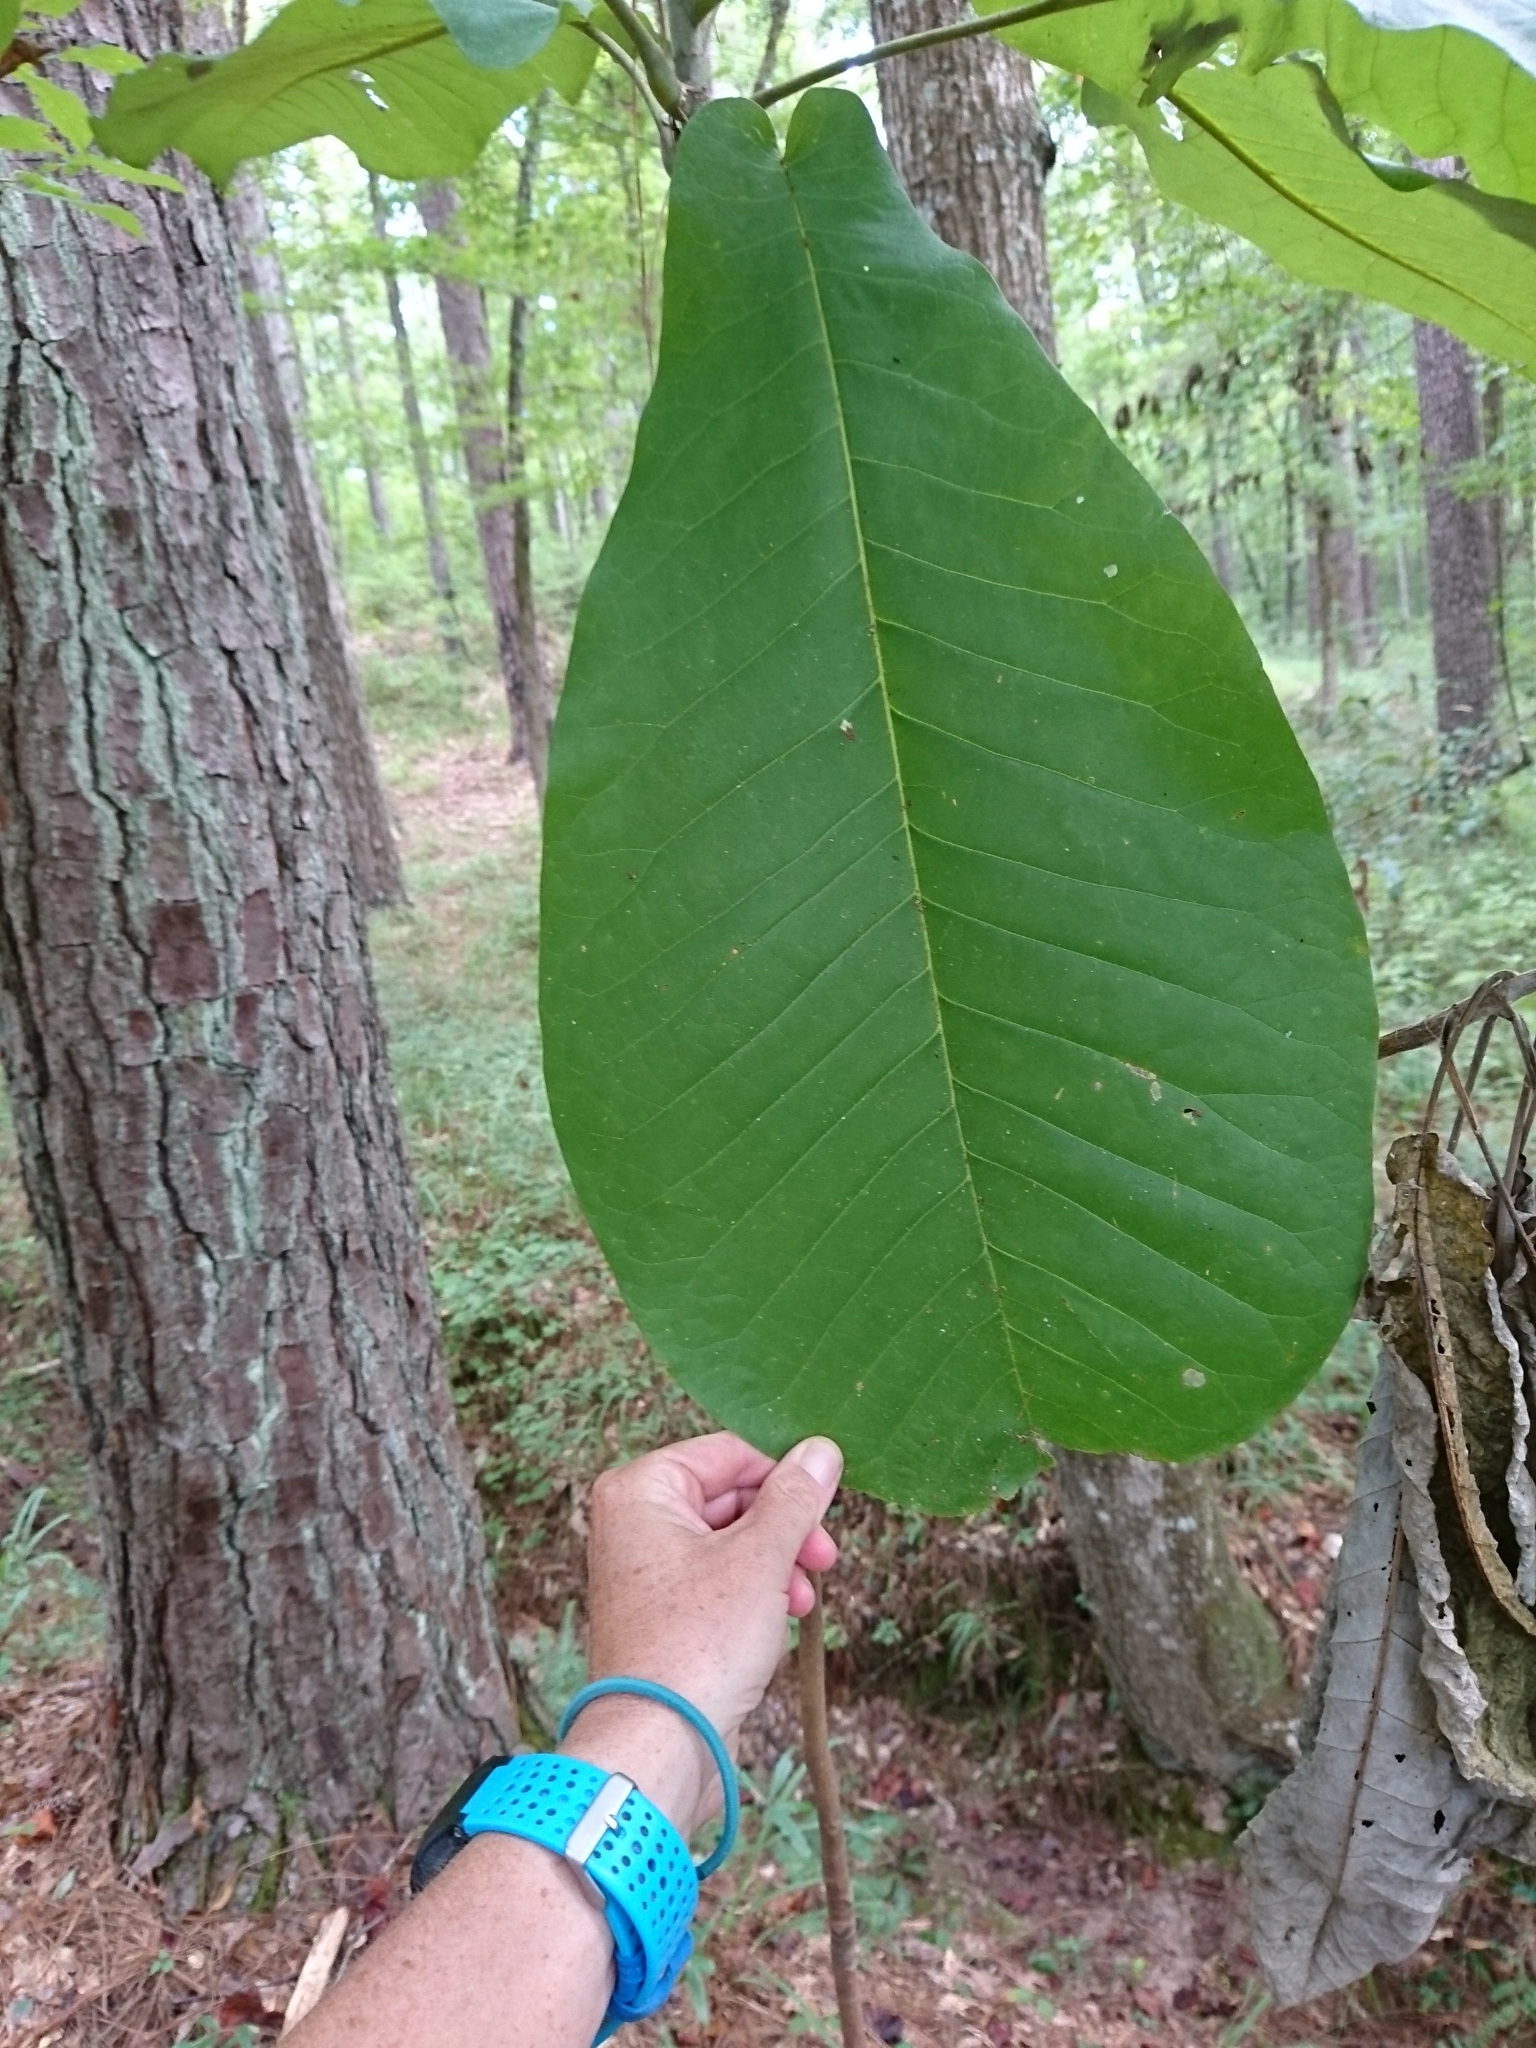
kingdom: Plantae
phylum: Tracheophyta
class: Magnoliopsida
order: Magnoliales
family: Magnoliaceae
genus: Magnolia
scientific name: Magnolia macrophylla
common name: Big-leaf magnolia
